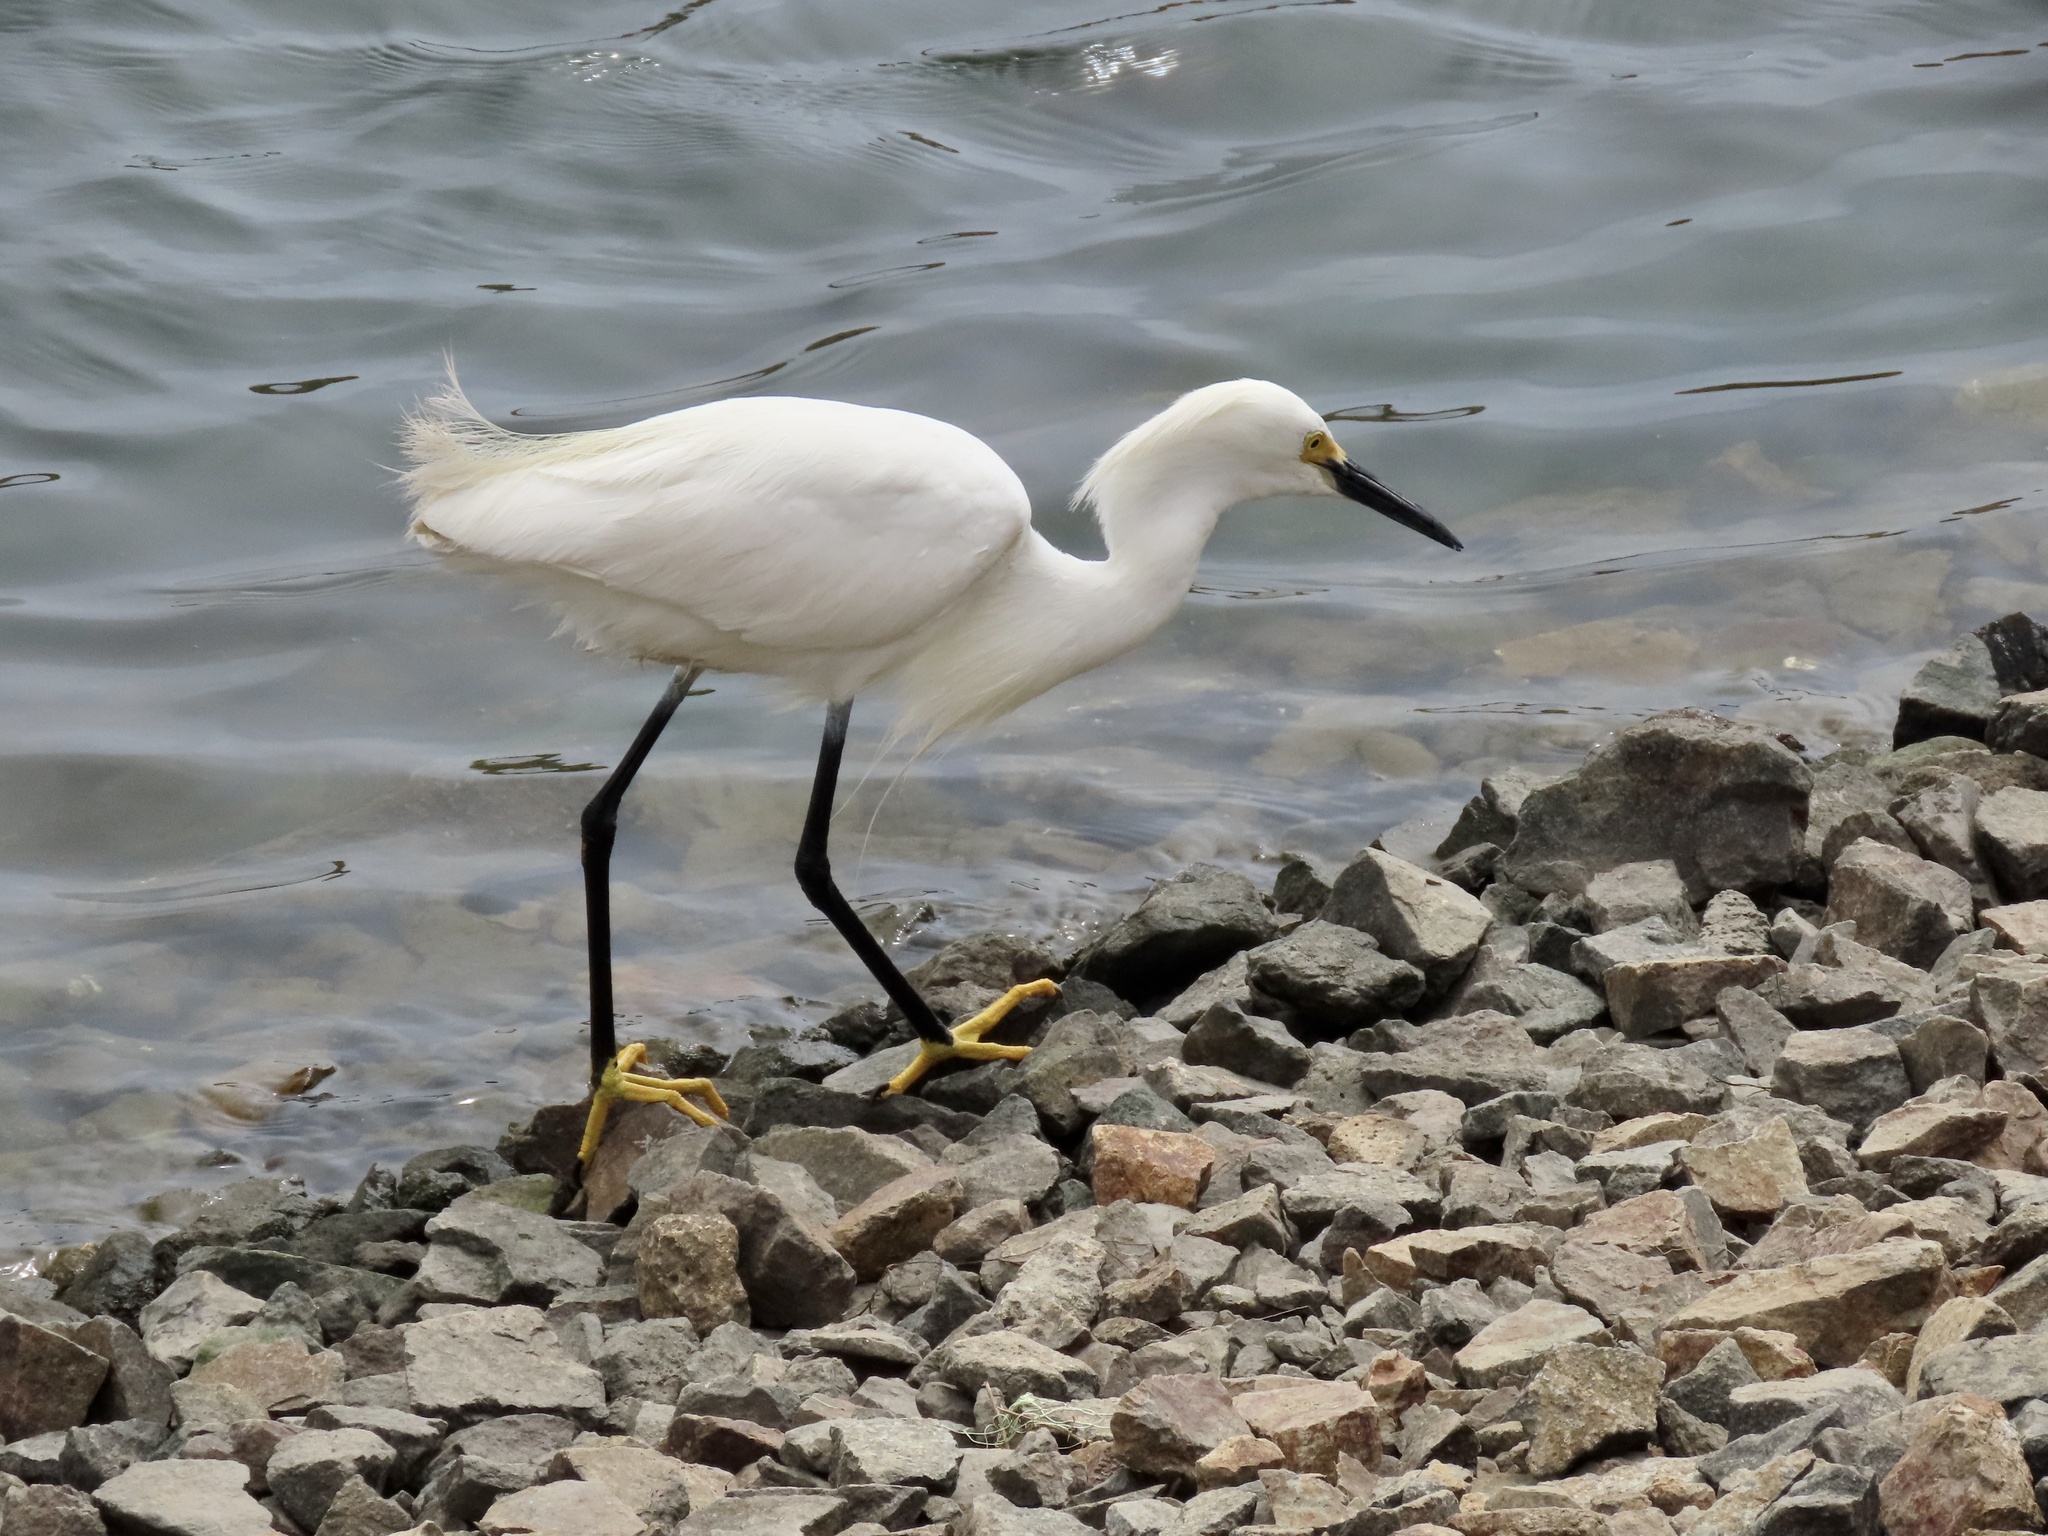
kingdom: Animalia
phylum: Chordata
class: Aves
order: Pelecaniformes
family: Ardeidae
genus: Egretta
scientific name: Egretta thula
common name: Snowy egret
